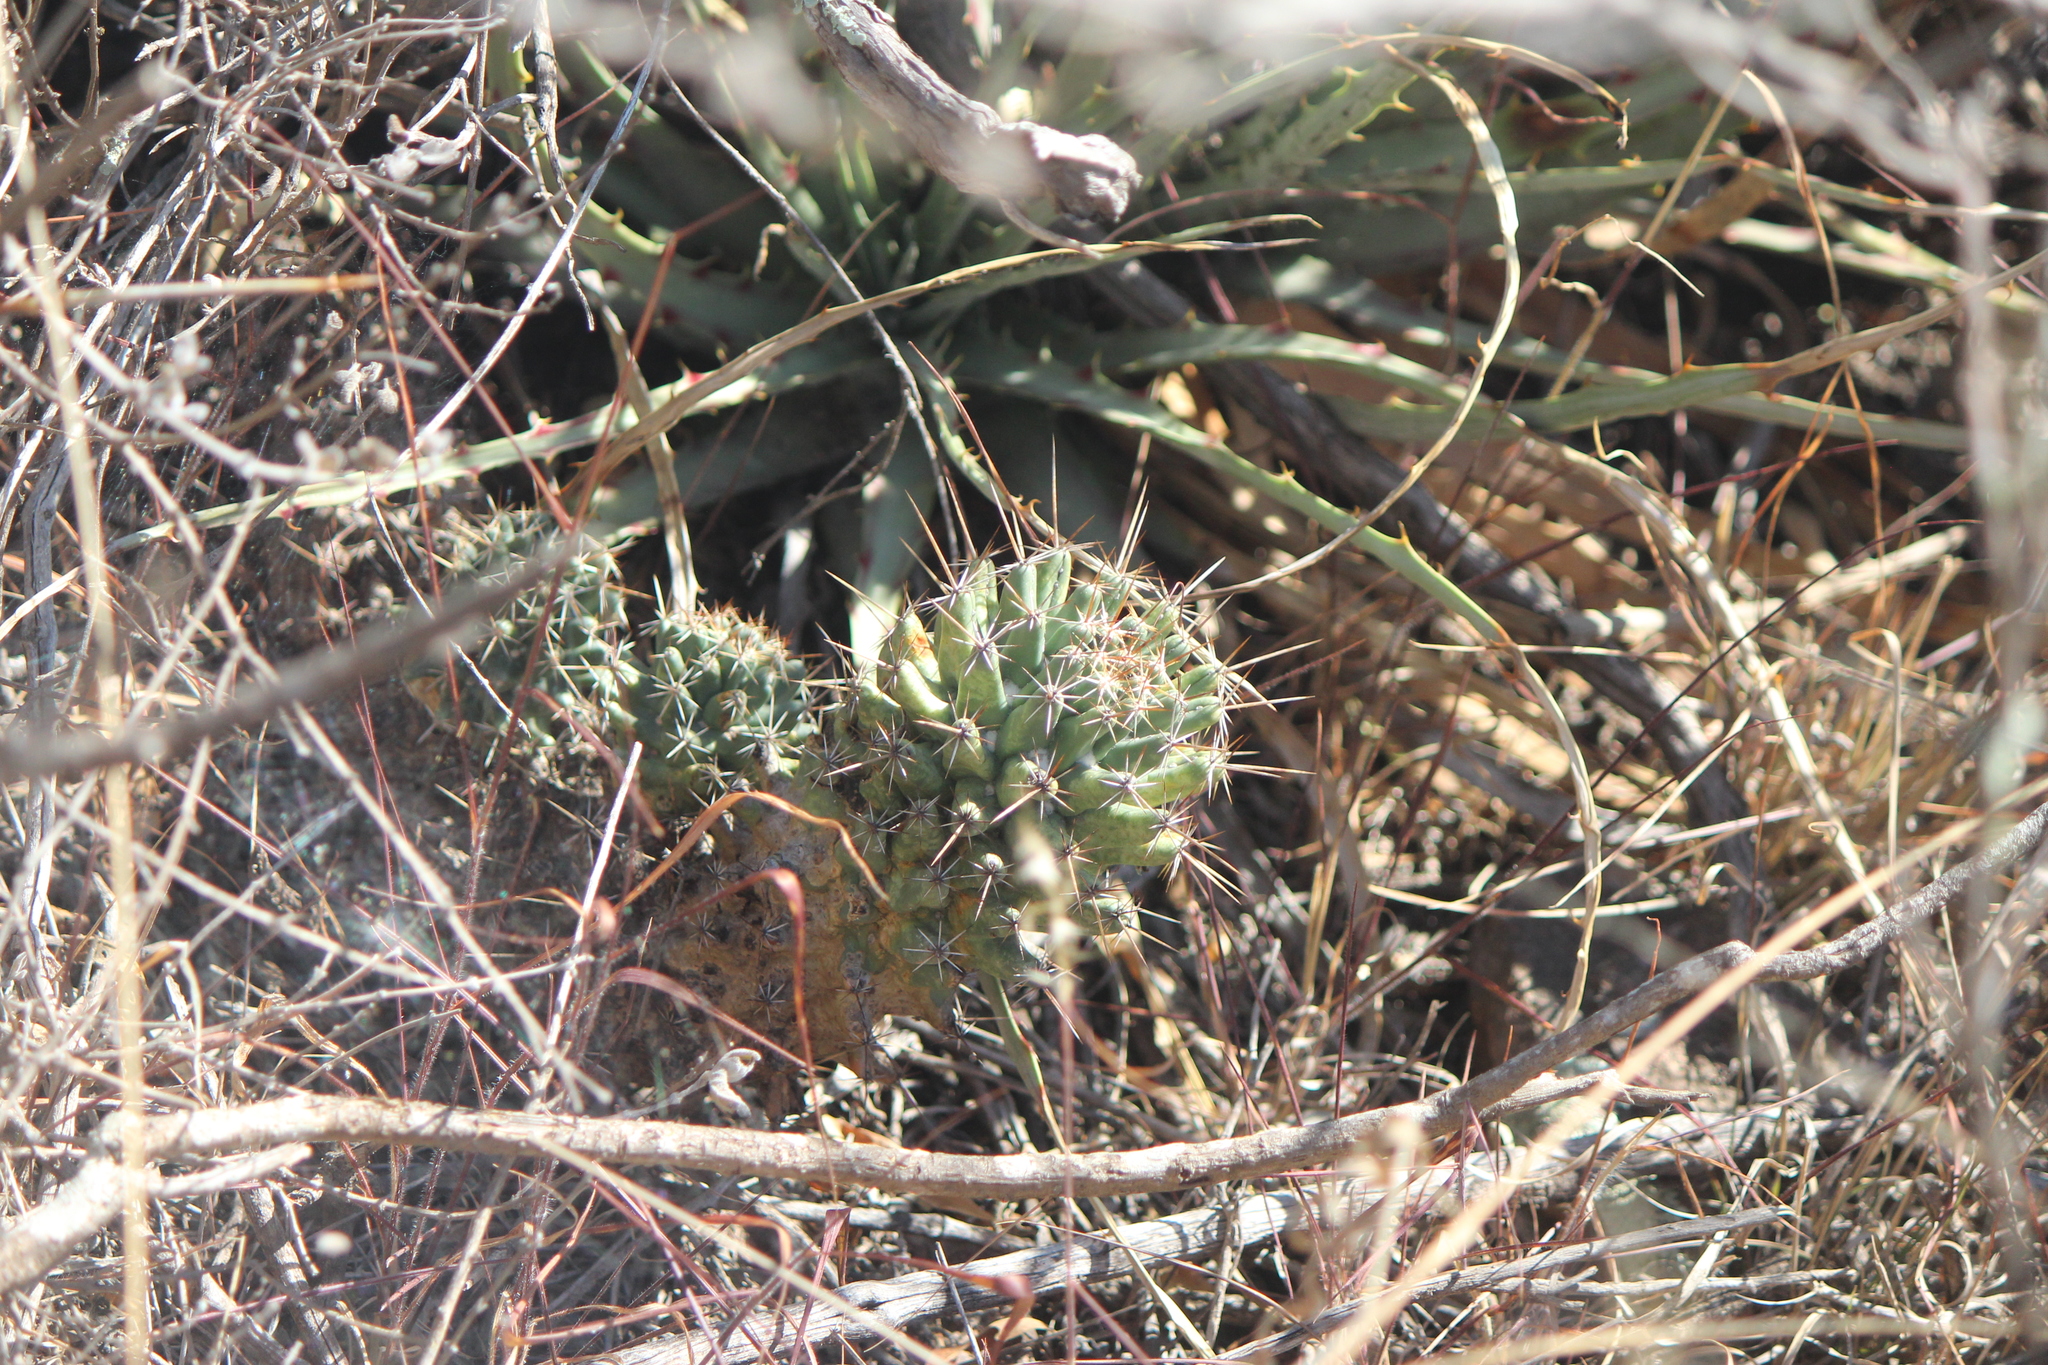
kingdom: Plantae
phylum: Tracheophyta
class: Magnoliopsida
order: Caryophyllales
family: Cactaceae
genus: Coryphantha
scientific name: Coryphantha octacantha
